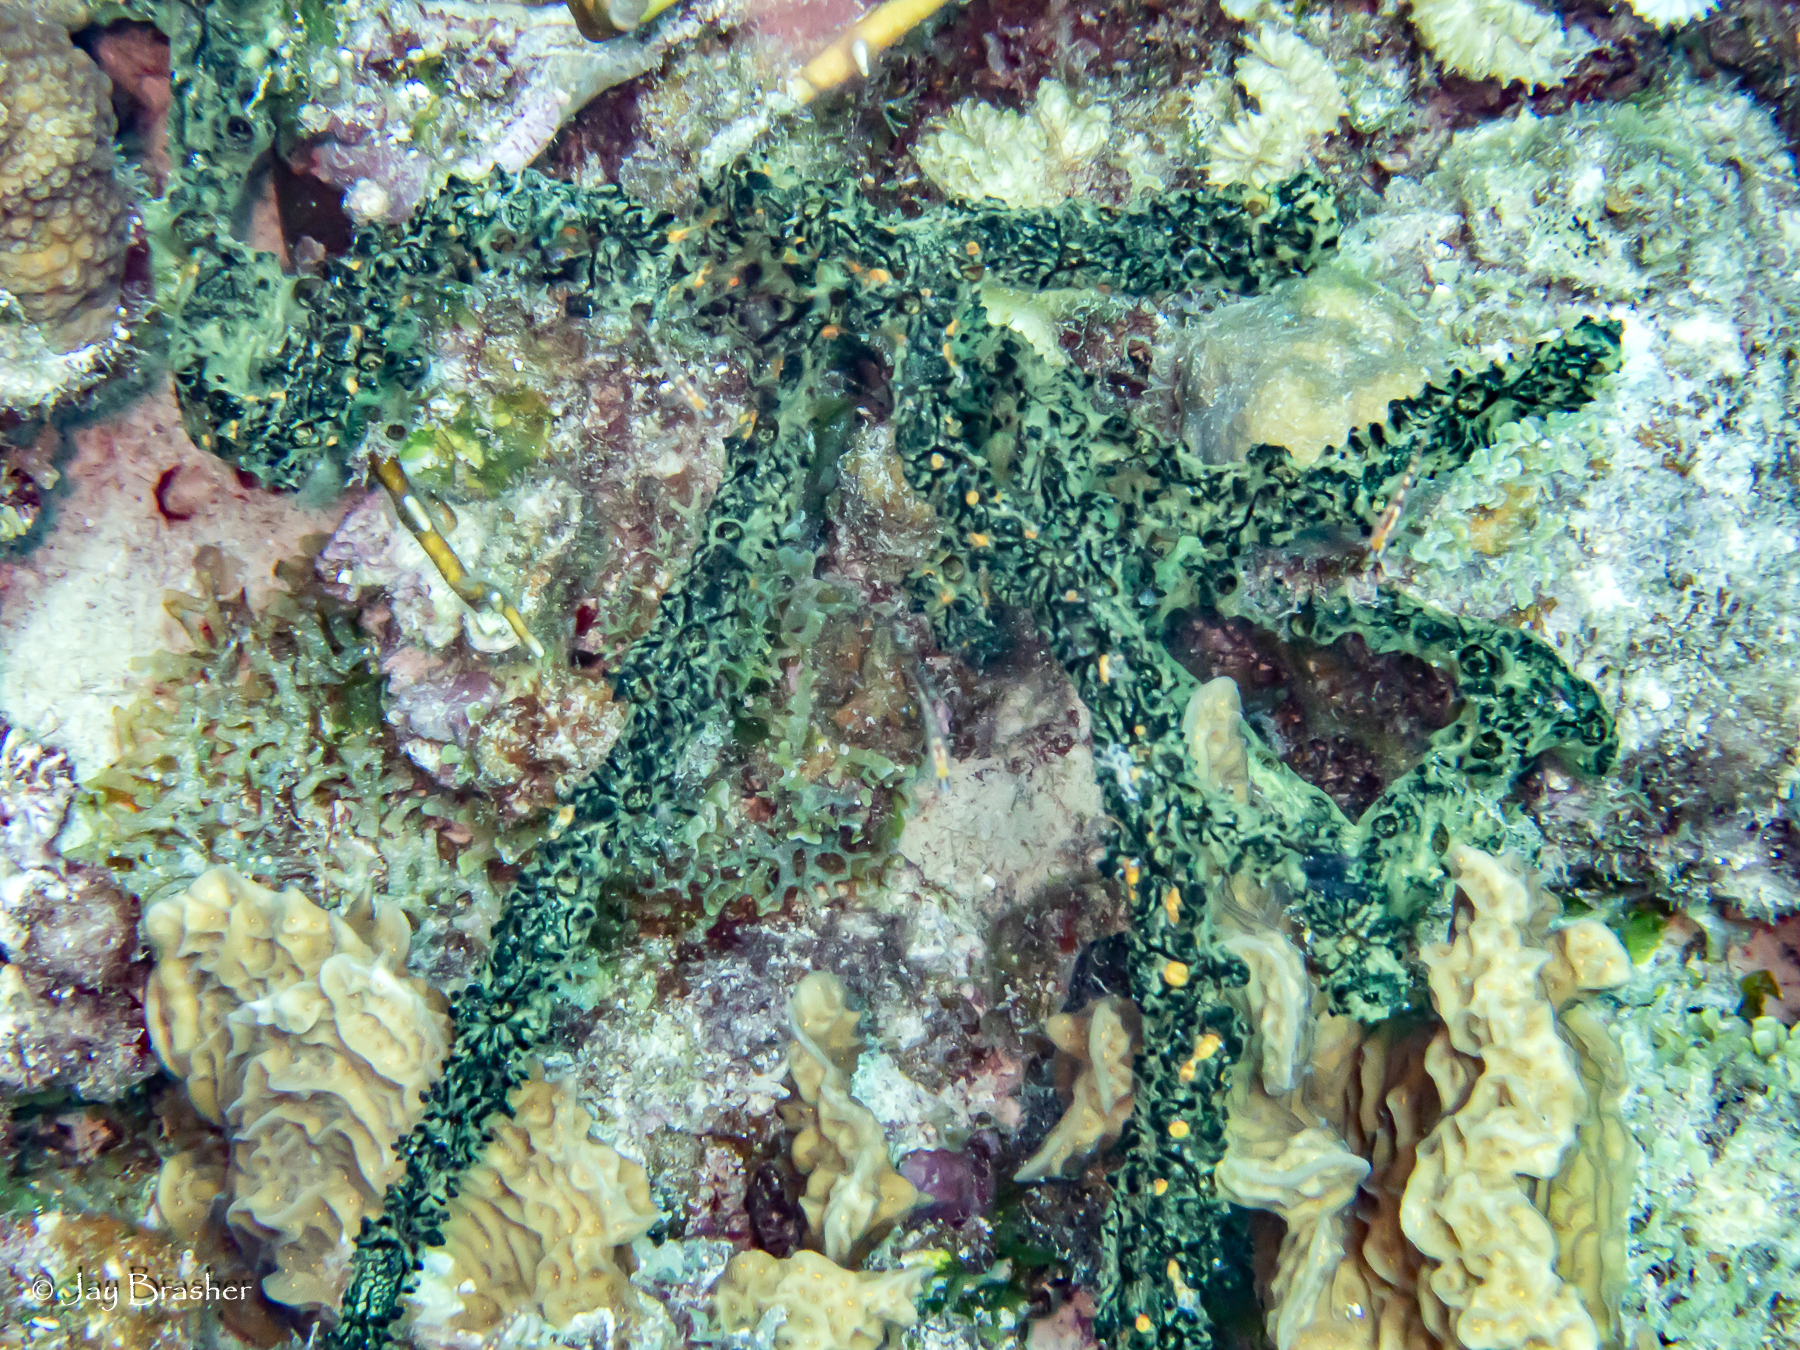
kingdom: Animalia
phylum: Porifera
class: Demospongiae
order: Poecilosclerida
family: Iotrochotidae
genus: Iotrochota
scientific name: Iotrochota birotulata
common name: Purple bleeding sponge
